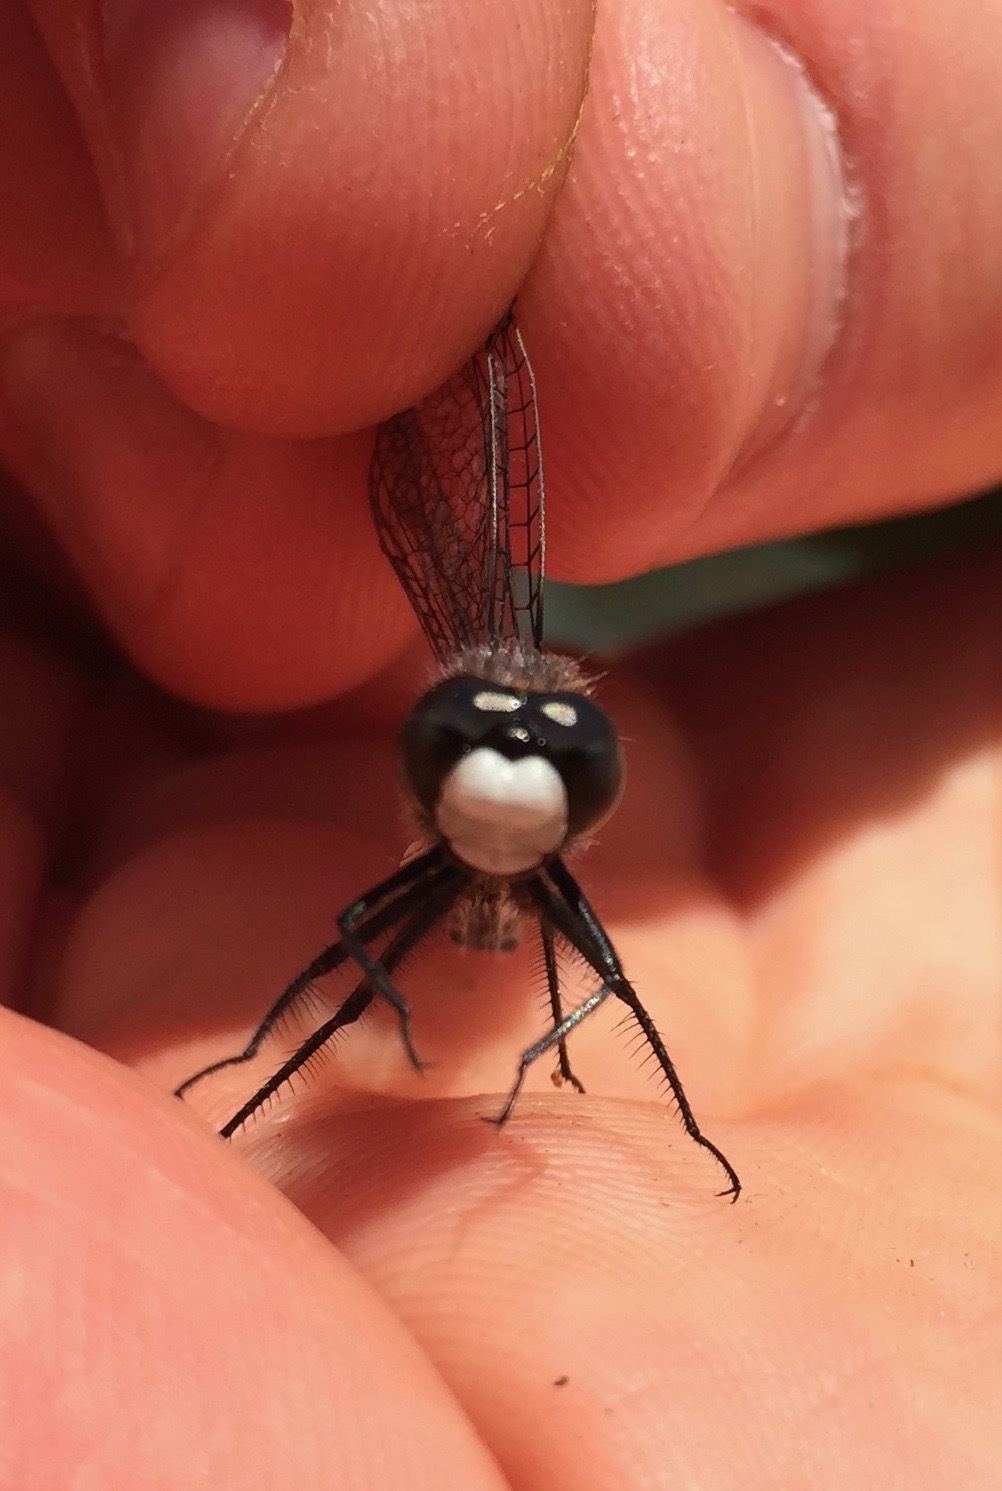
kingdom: Animalia
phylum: Arthropoda
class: Insecta
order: Odonata
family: Libellulidae
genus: Leucorrhinia
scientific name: Leucorrhinia intacta
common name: Dot-tailed whiteface
